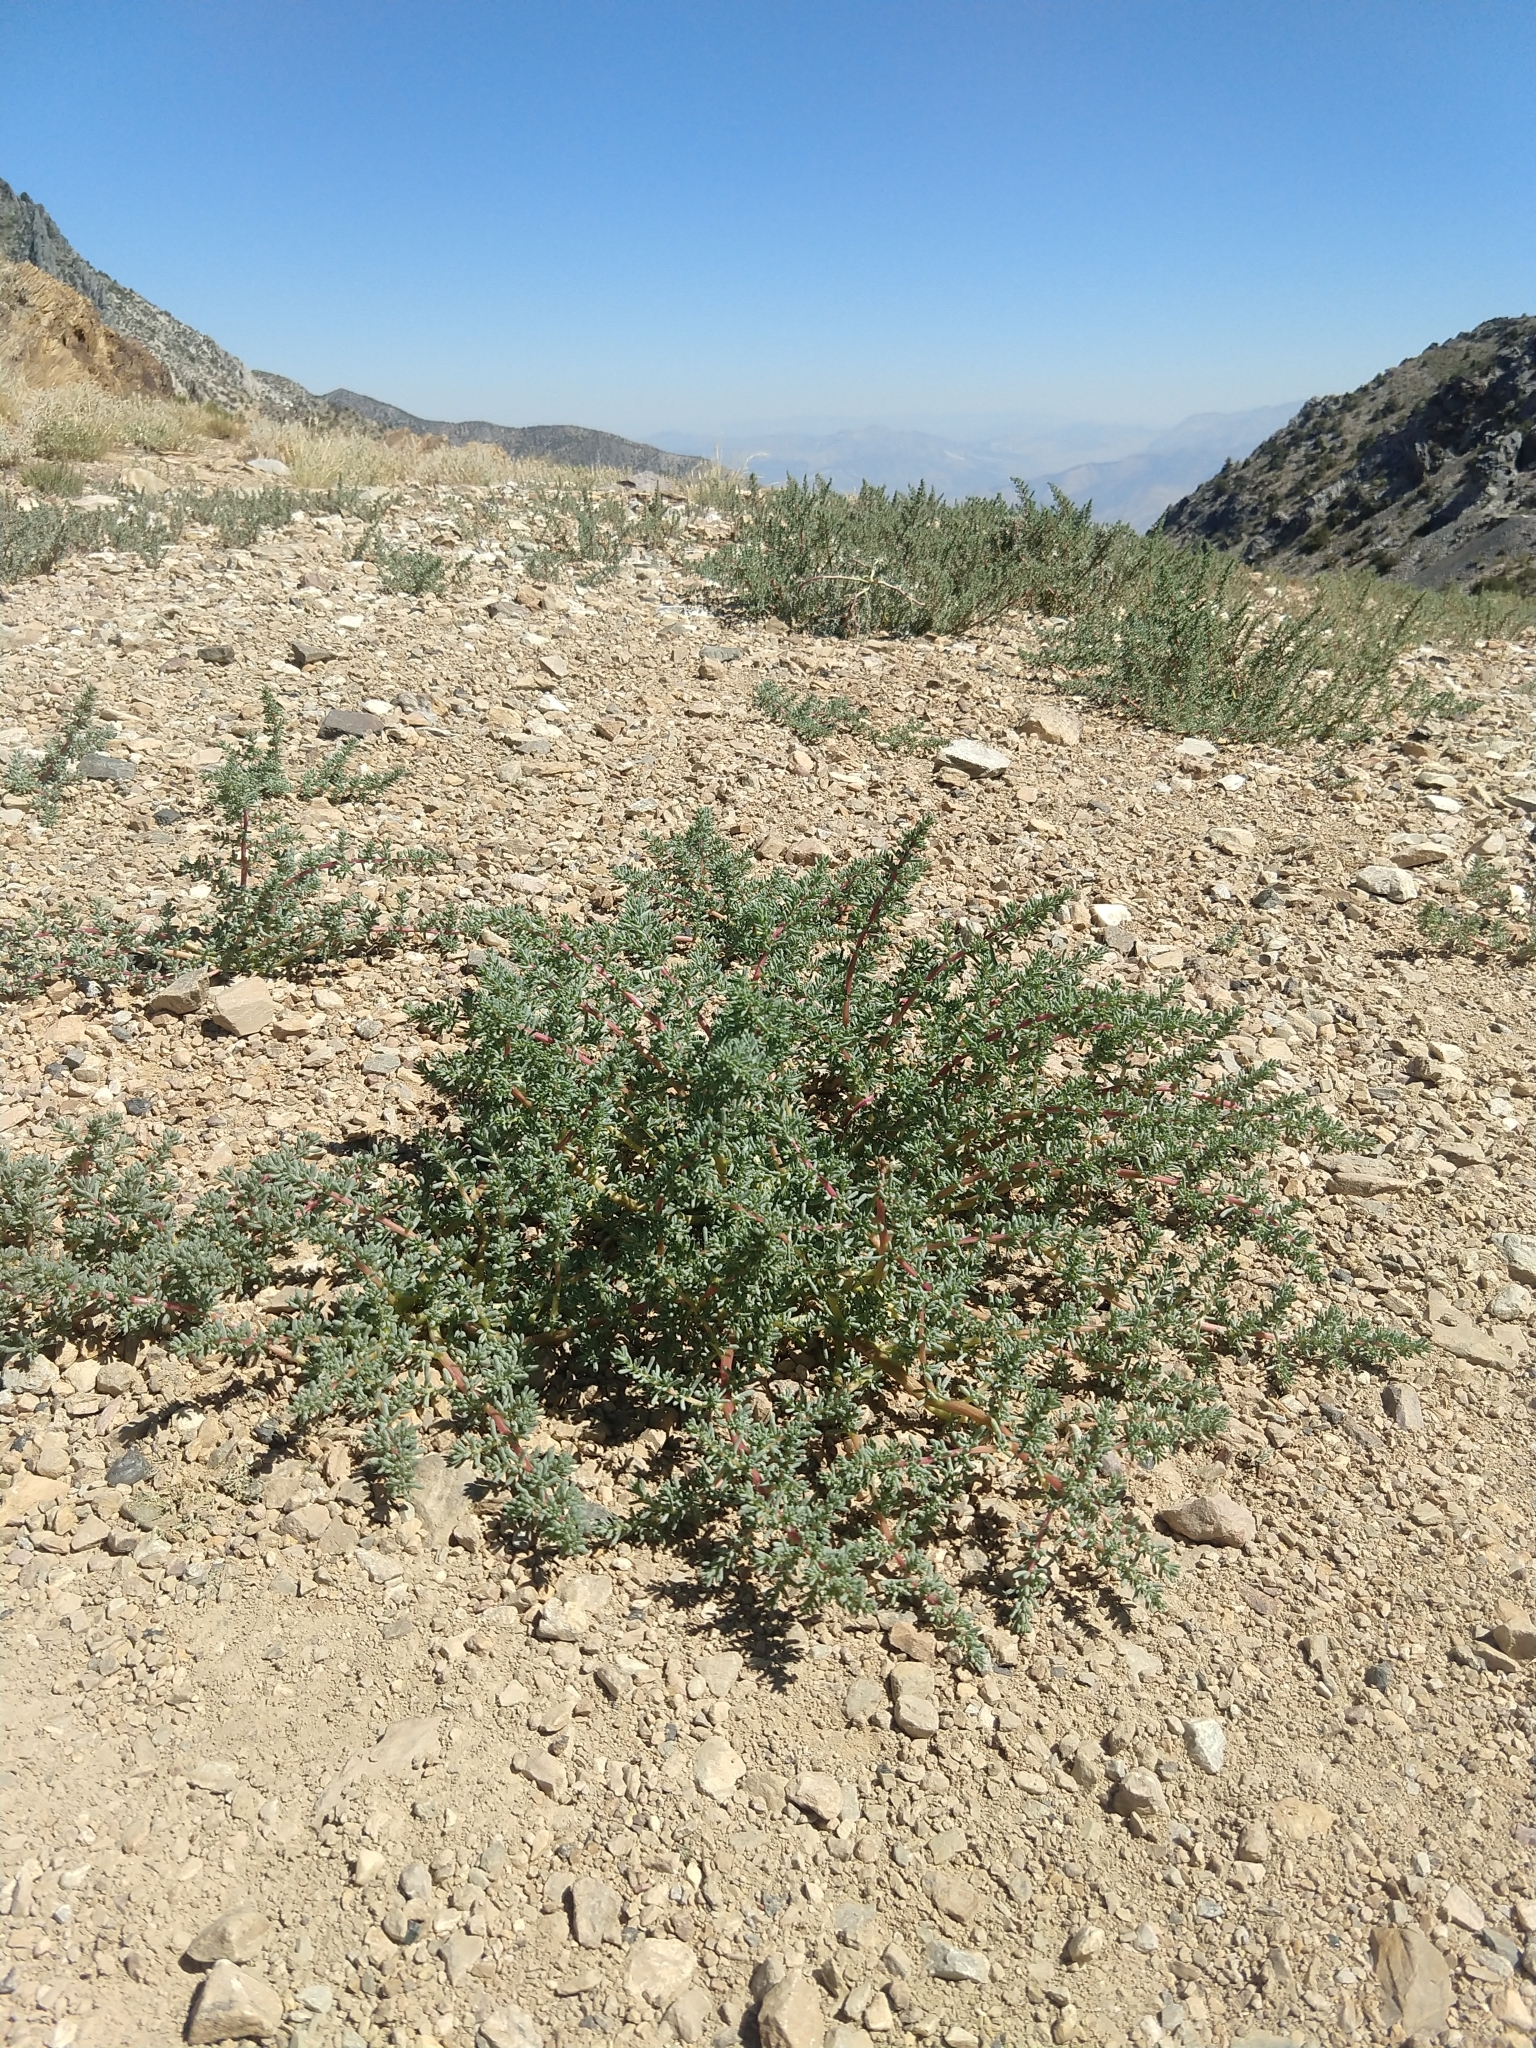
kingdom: Plantae
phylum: Tracheophyta
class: Magnoliopsida
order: Caryophyllales
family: Amaranthaceae
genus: Halogeton
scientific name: Halogeton glomeratus
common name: Saltlover
